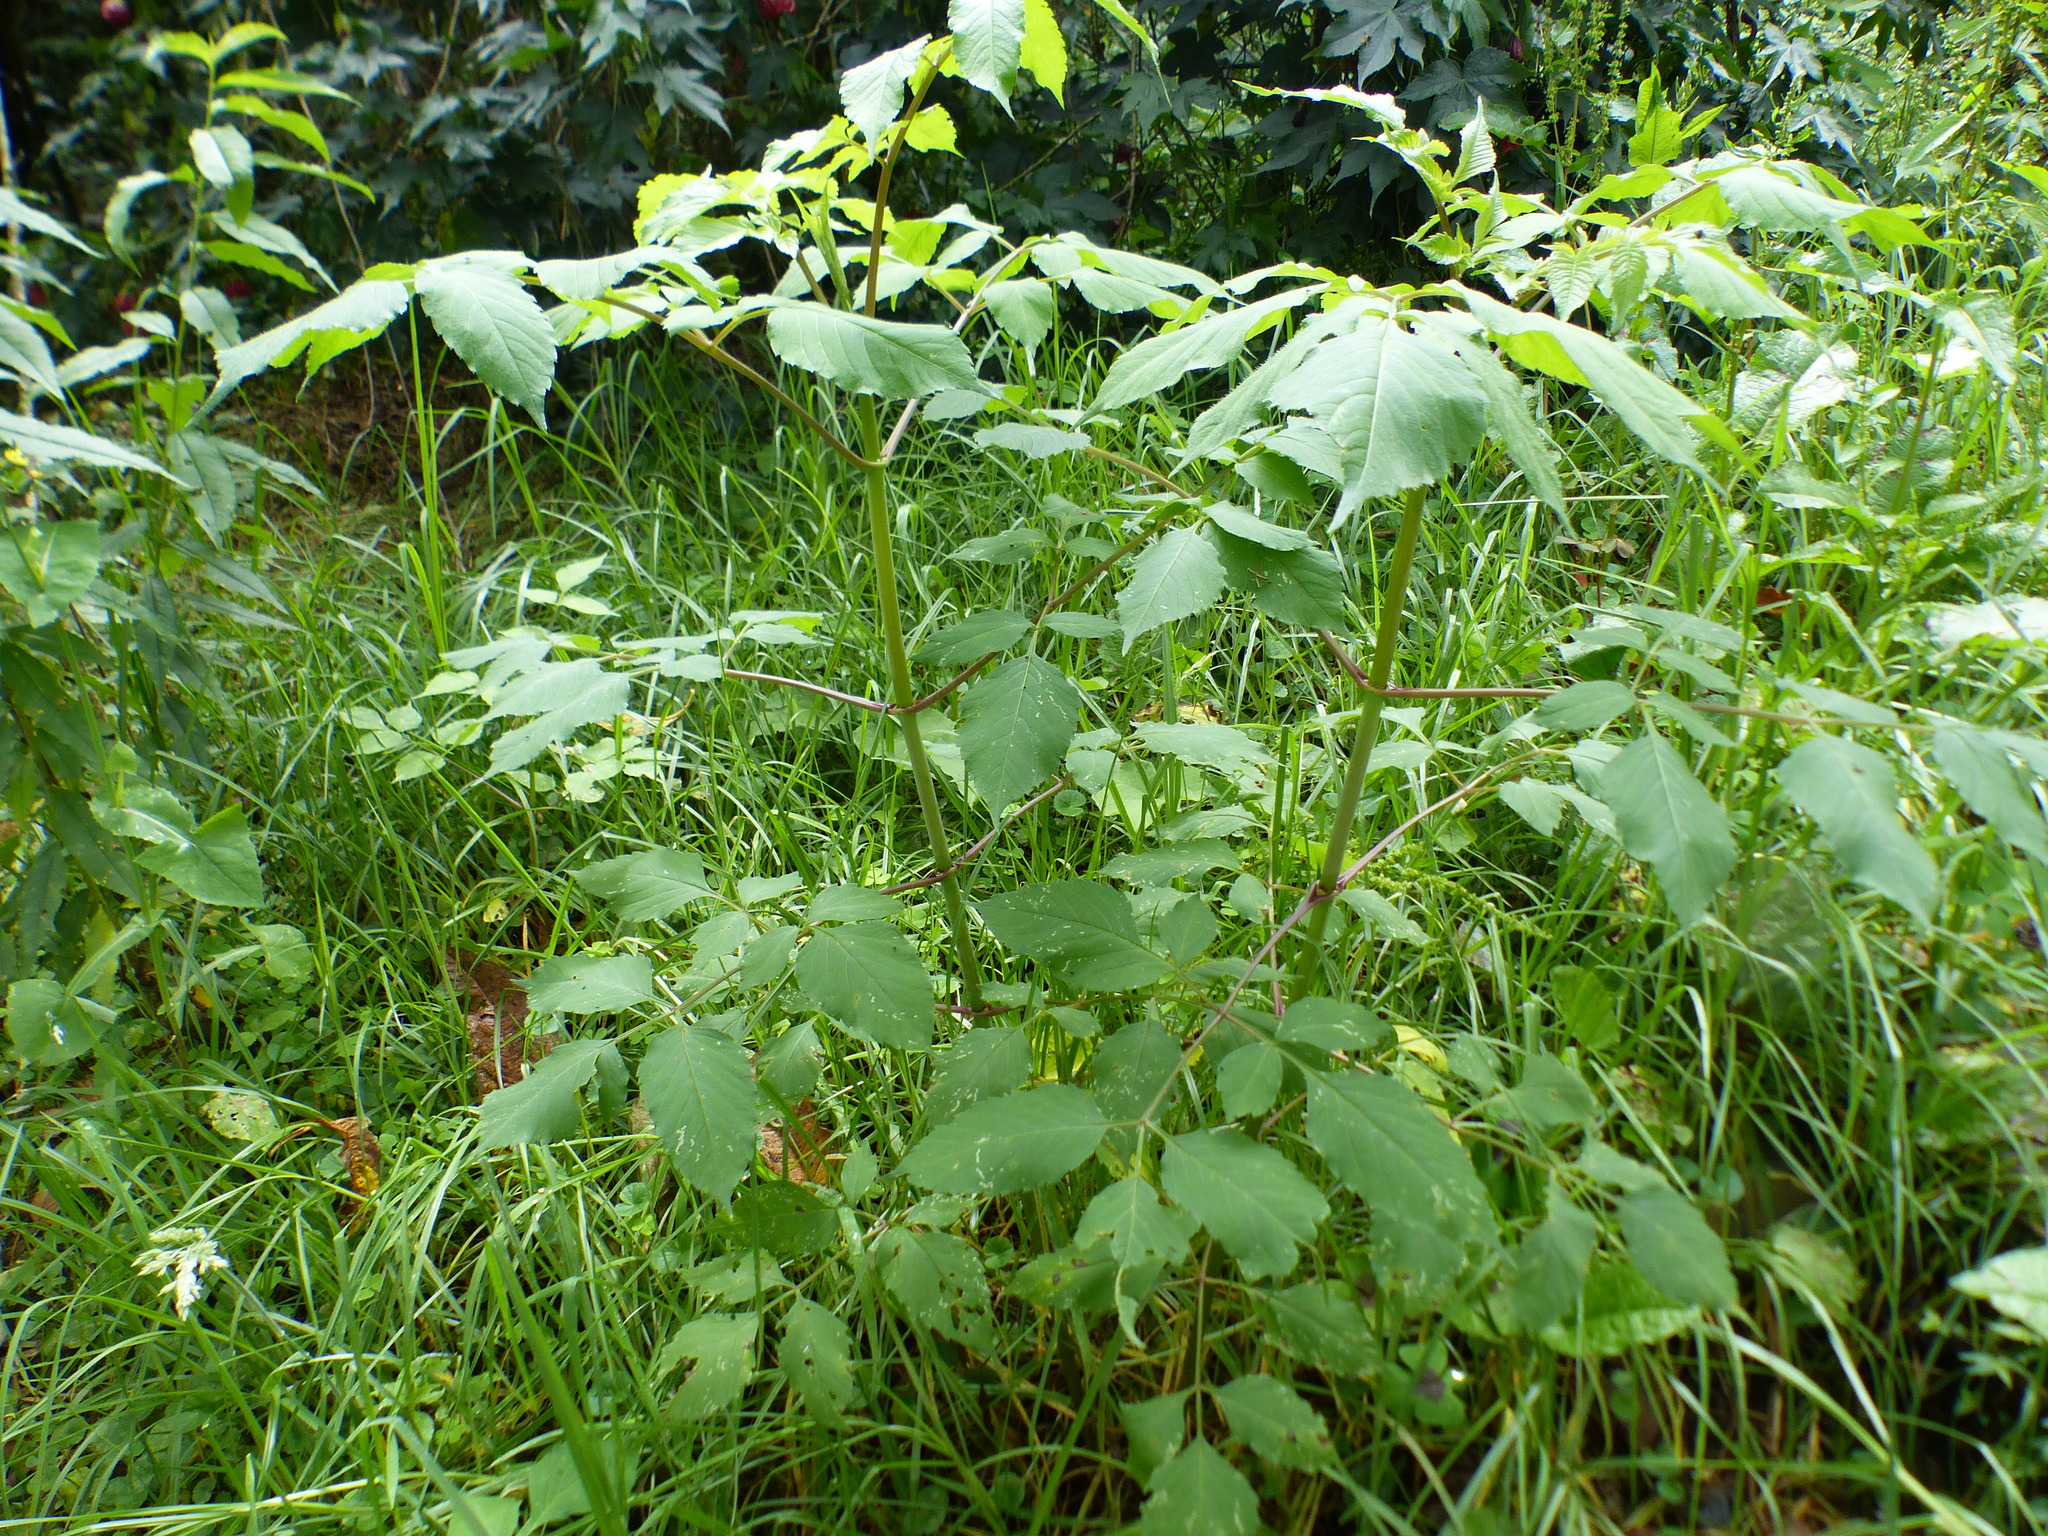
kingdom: Plantae
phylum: Tracheophyta
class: Magnoliopsida
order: Asterales
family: Asteraceae
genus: Dahlia
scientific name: Dahlia imperialis
